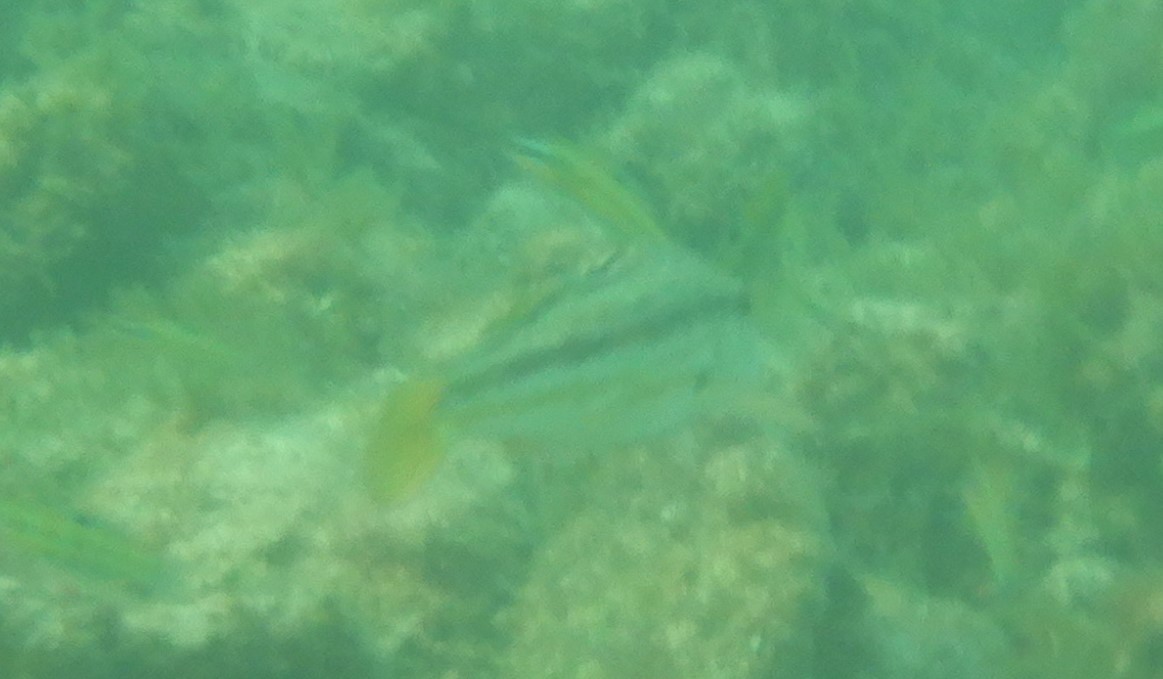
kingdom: Animalia
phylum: Chordata
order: Perciformes
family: Mullidae
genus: Mullus
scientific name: Mullus surmuletus
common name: Red mullet
